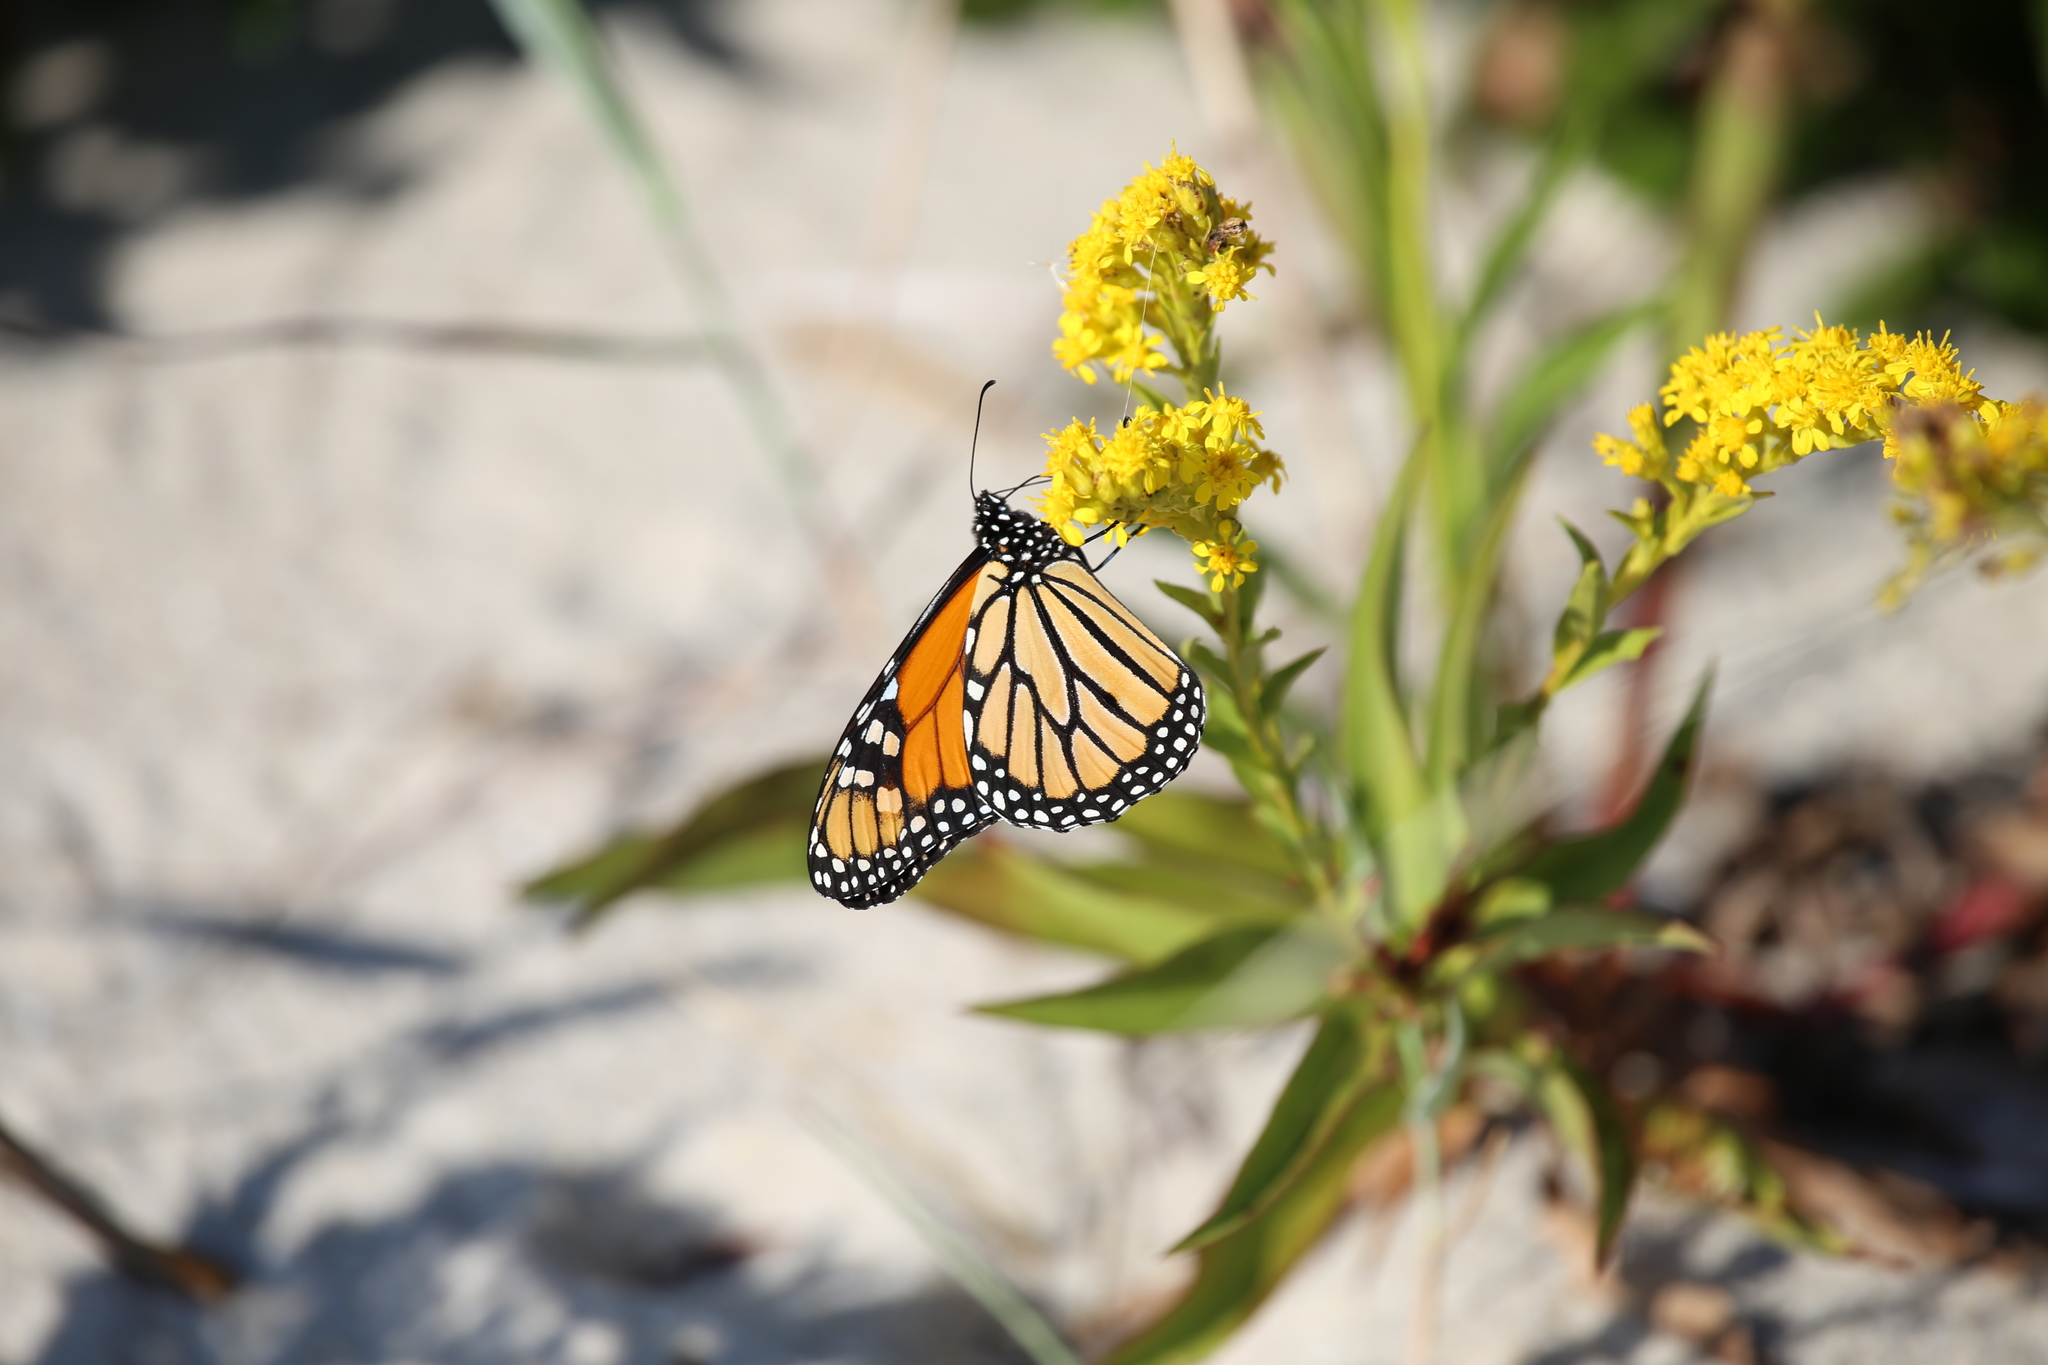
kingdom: Animalia
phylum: Arthropoda
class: Insecta
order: Lepidoptera
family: Nymphalidae
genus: Danaus
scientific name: Danaus plexippus
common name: Monarch
